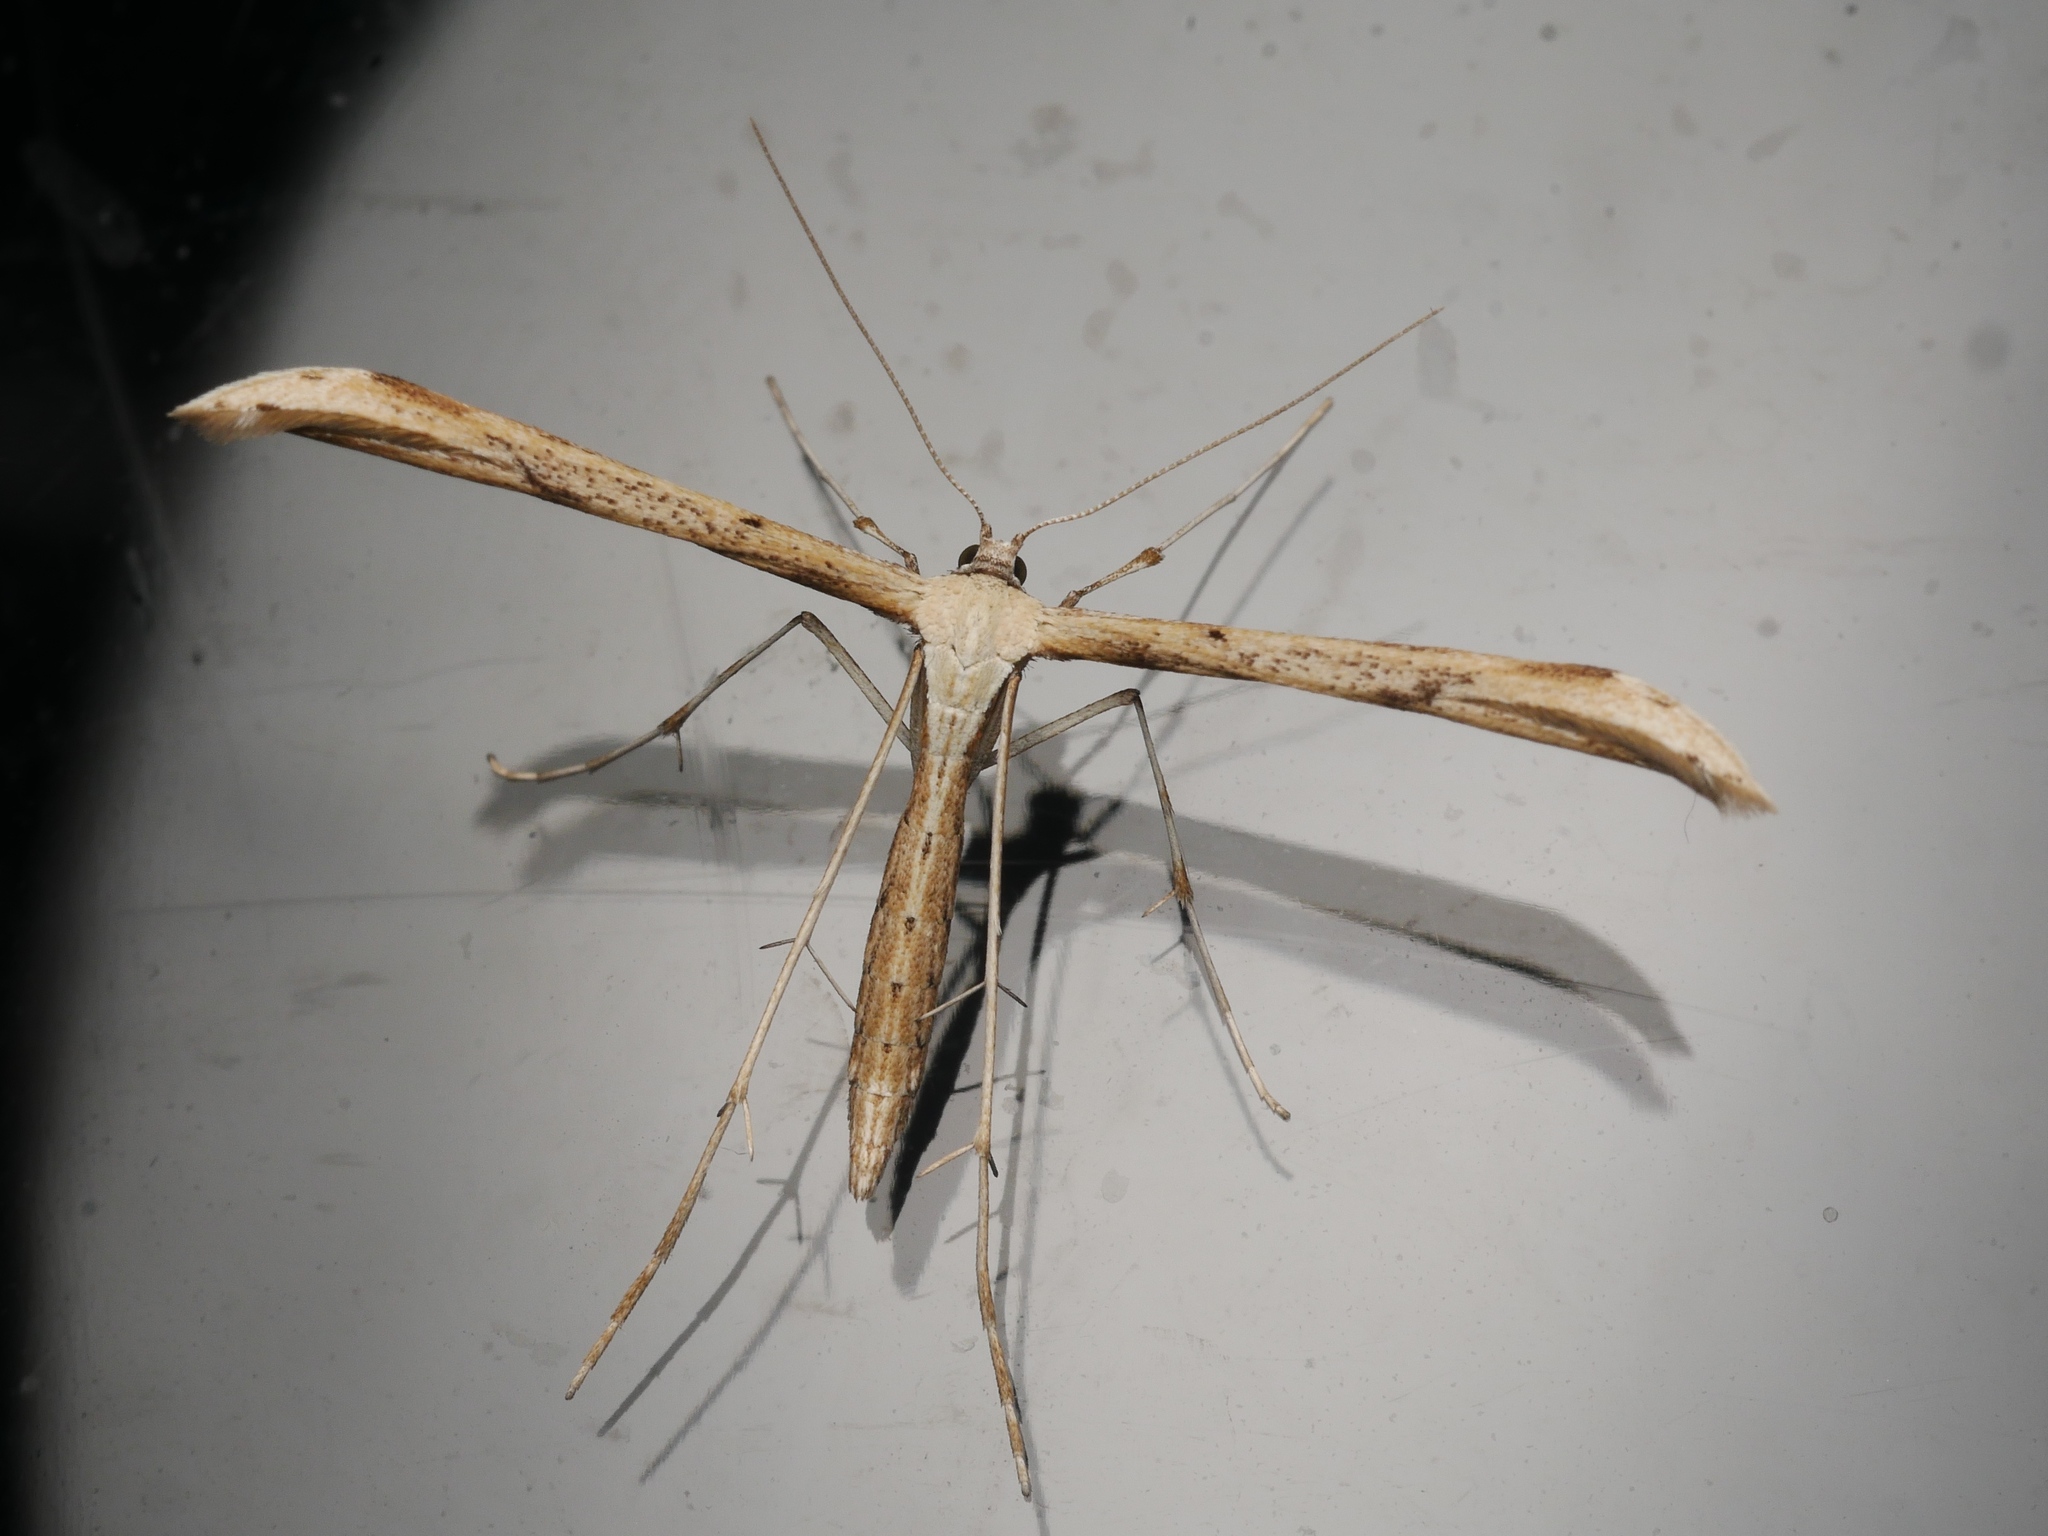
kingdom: Animalia
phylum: Arthropoda
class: Insecta
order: Lepidoptera
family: Pterophoridae
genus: Emmelina
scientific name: Emmelina monodactyla
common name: Common plume
